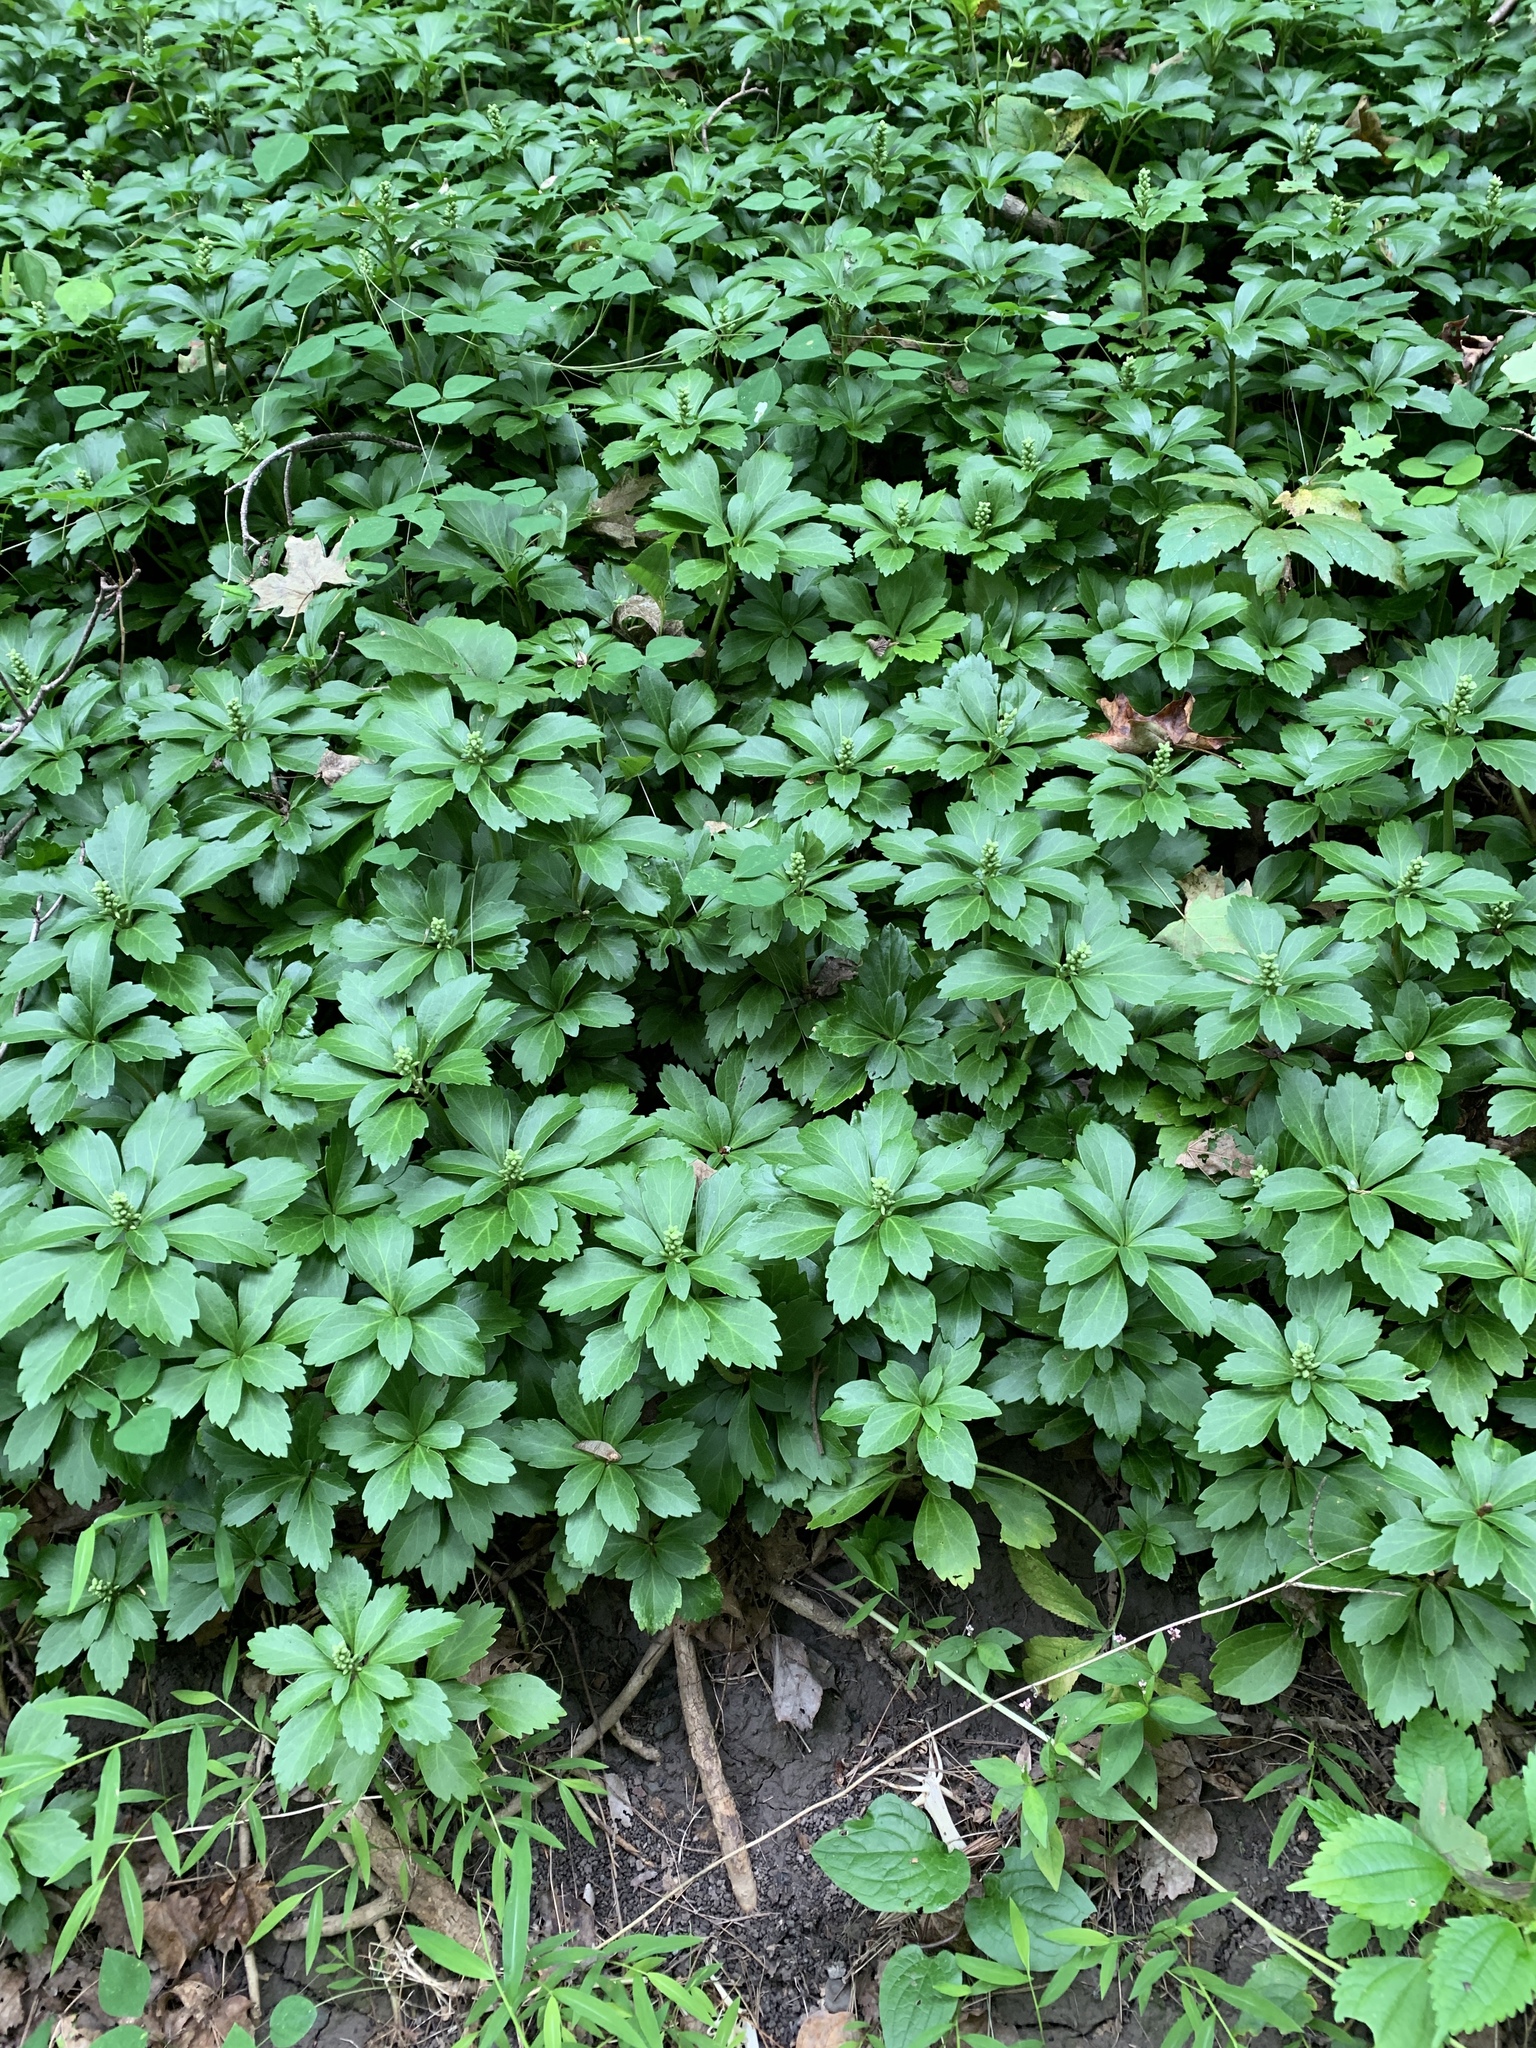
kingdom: Plantae
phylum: Tracheophyta
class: Magnoliopsida
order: Buxales
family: Buxaceae
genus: Pachysandra
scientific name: Pachysandra terminalis
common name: Japanese pachysandra
